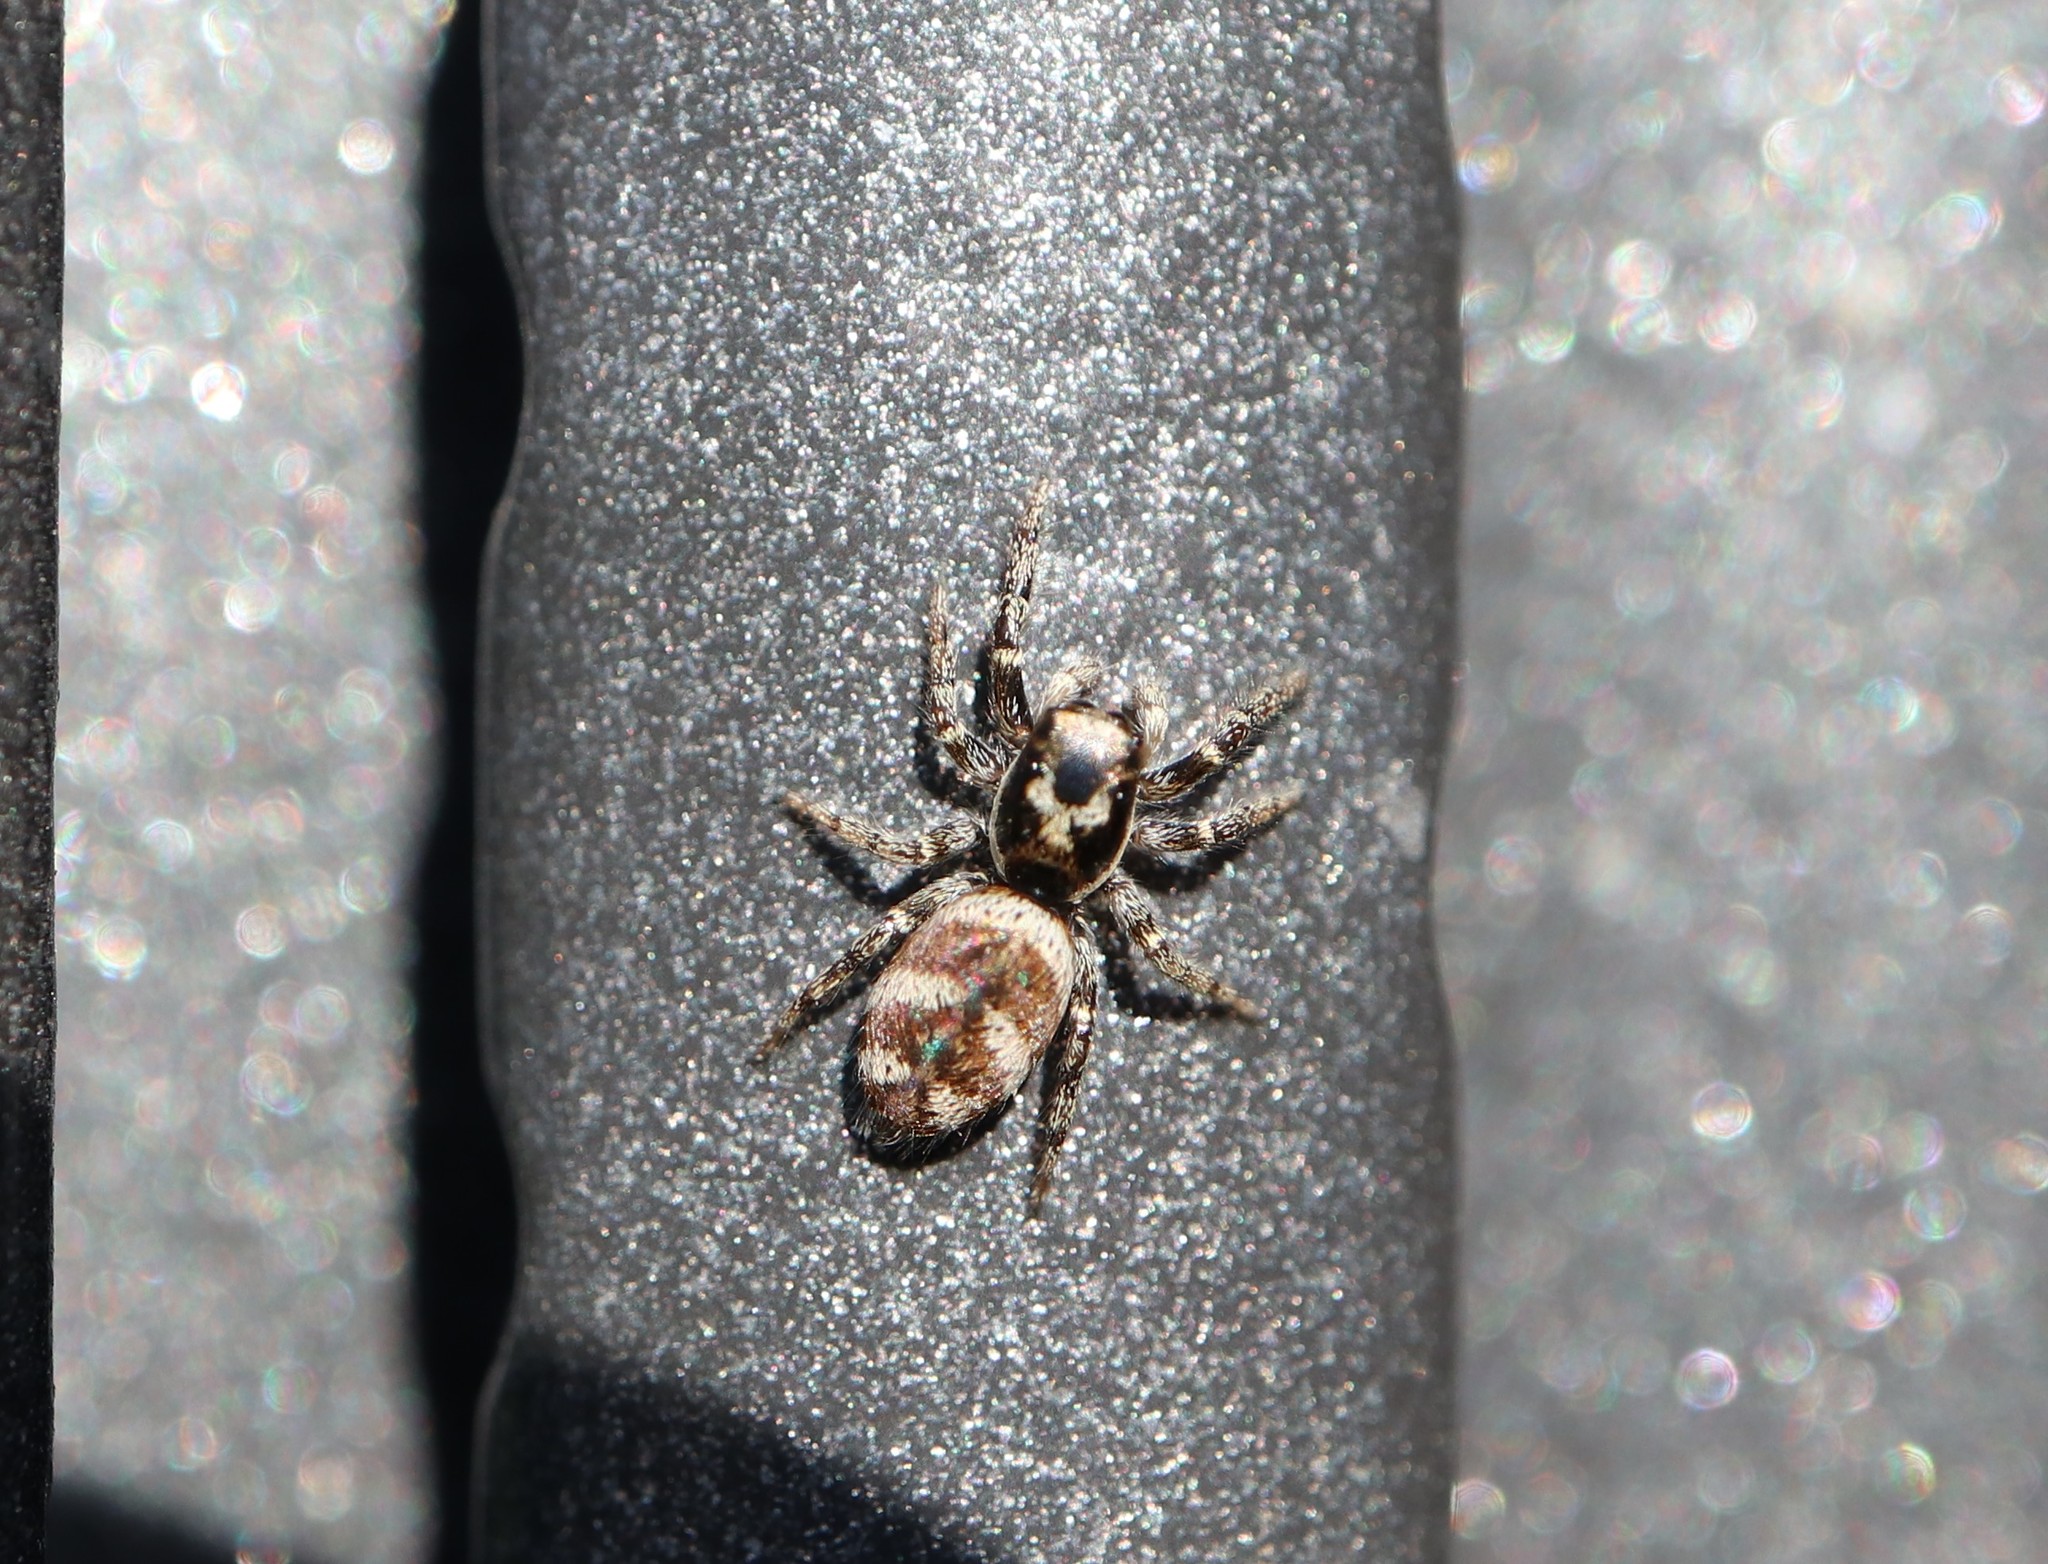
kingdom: Animalia
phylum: Arthropoda
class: Arachnida
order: Araneae
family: Salticidae
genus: Salticus
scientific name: Salticus scenicus
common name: Zebra jumper
